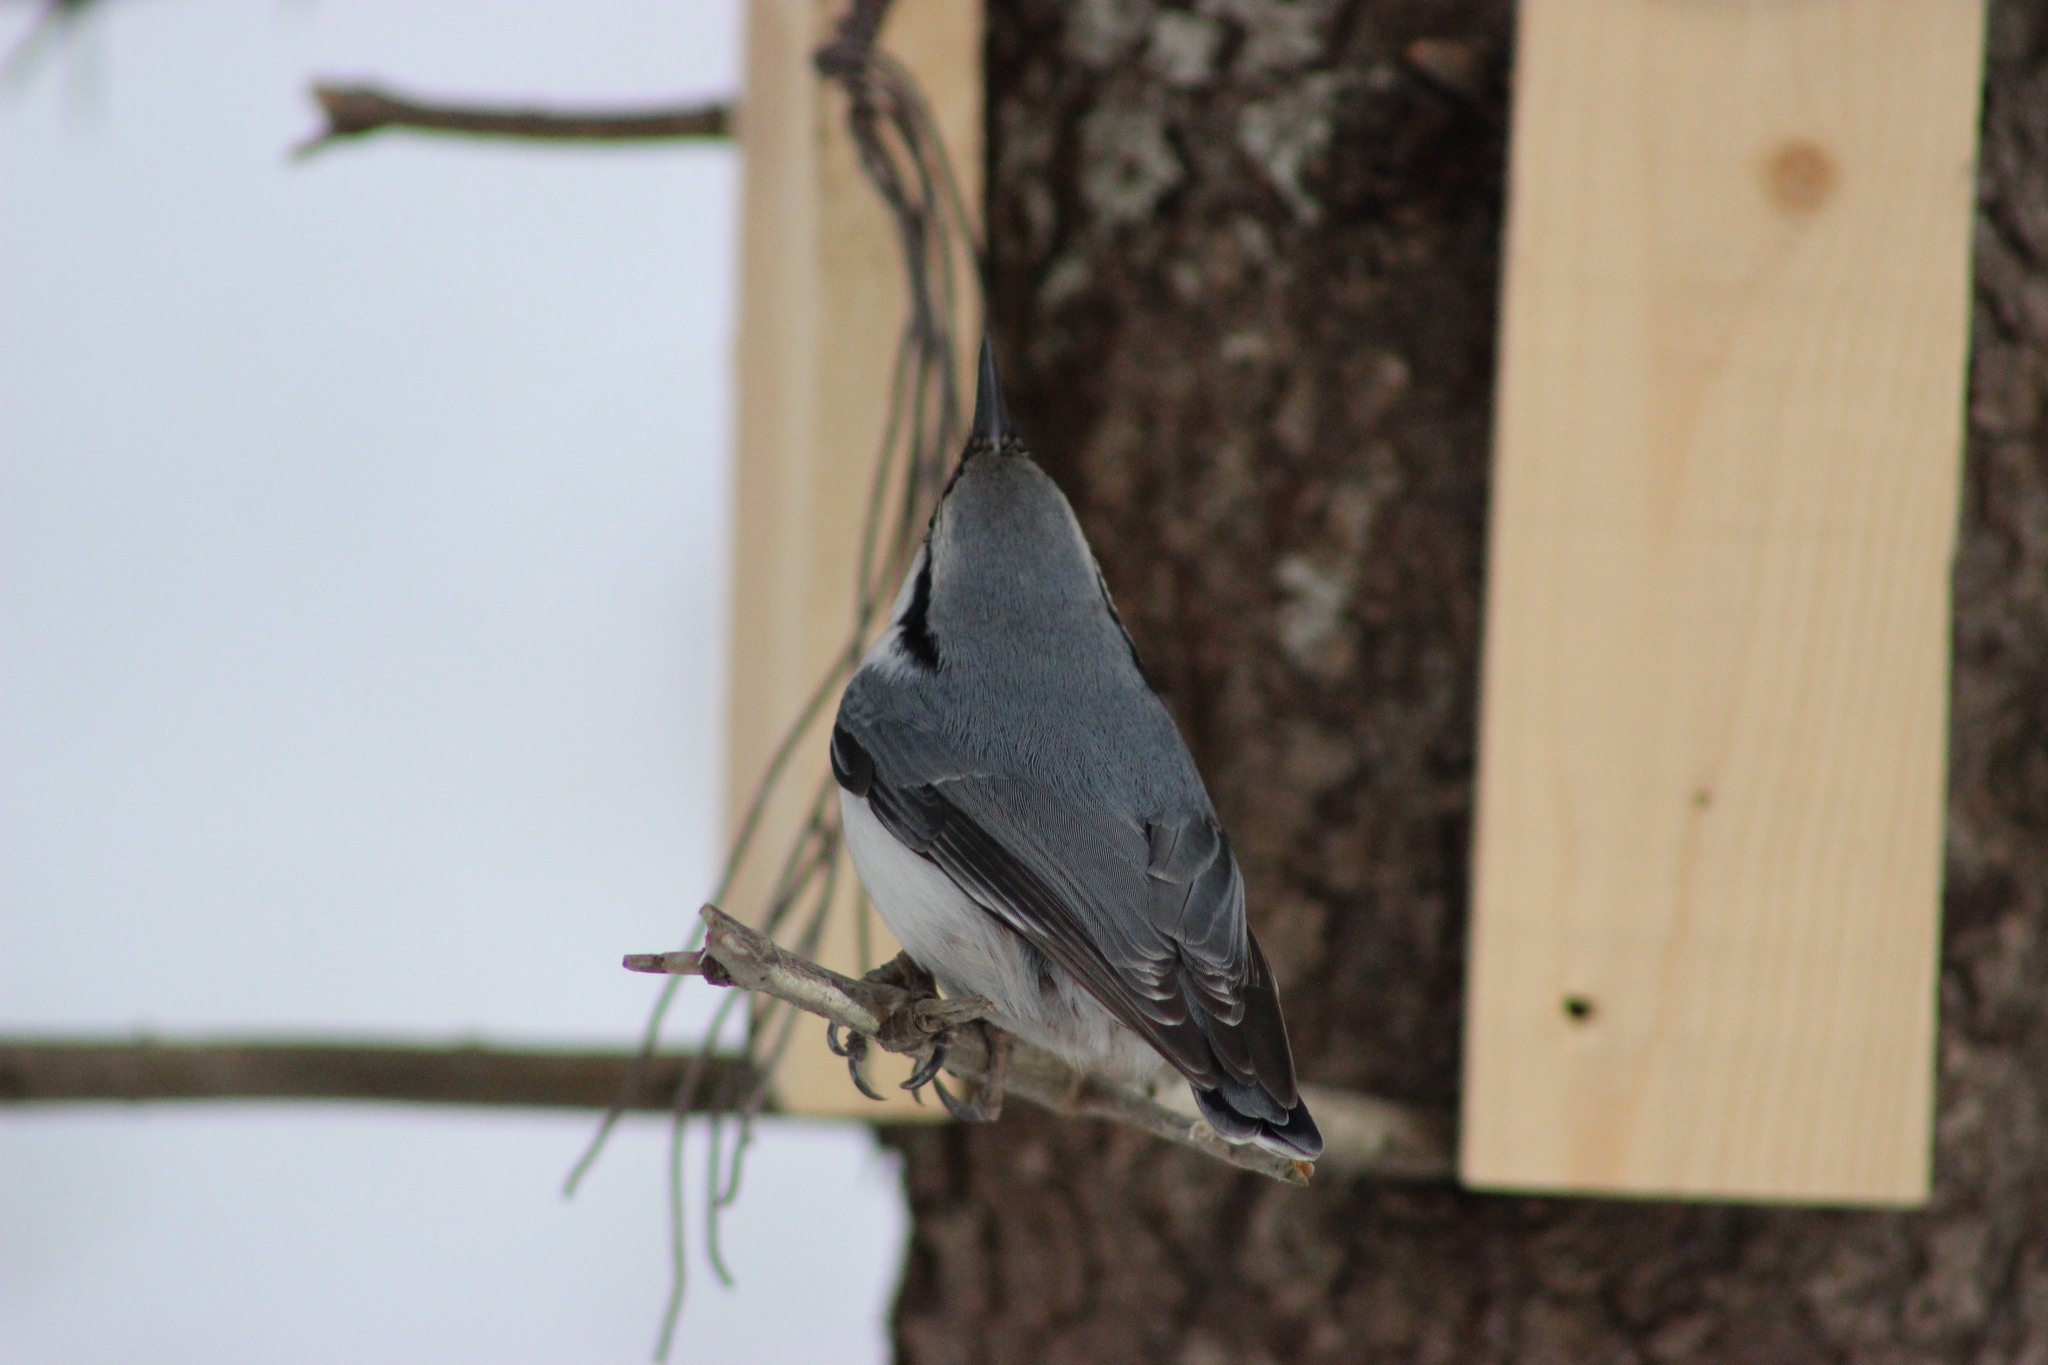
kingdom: Animalia
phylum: Chordata
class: Aves
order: Passeriformes
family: Sittidae
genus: Sitta
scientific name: Sitta europaea
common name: Eurasian nuthatch
